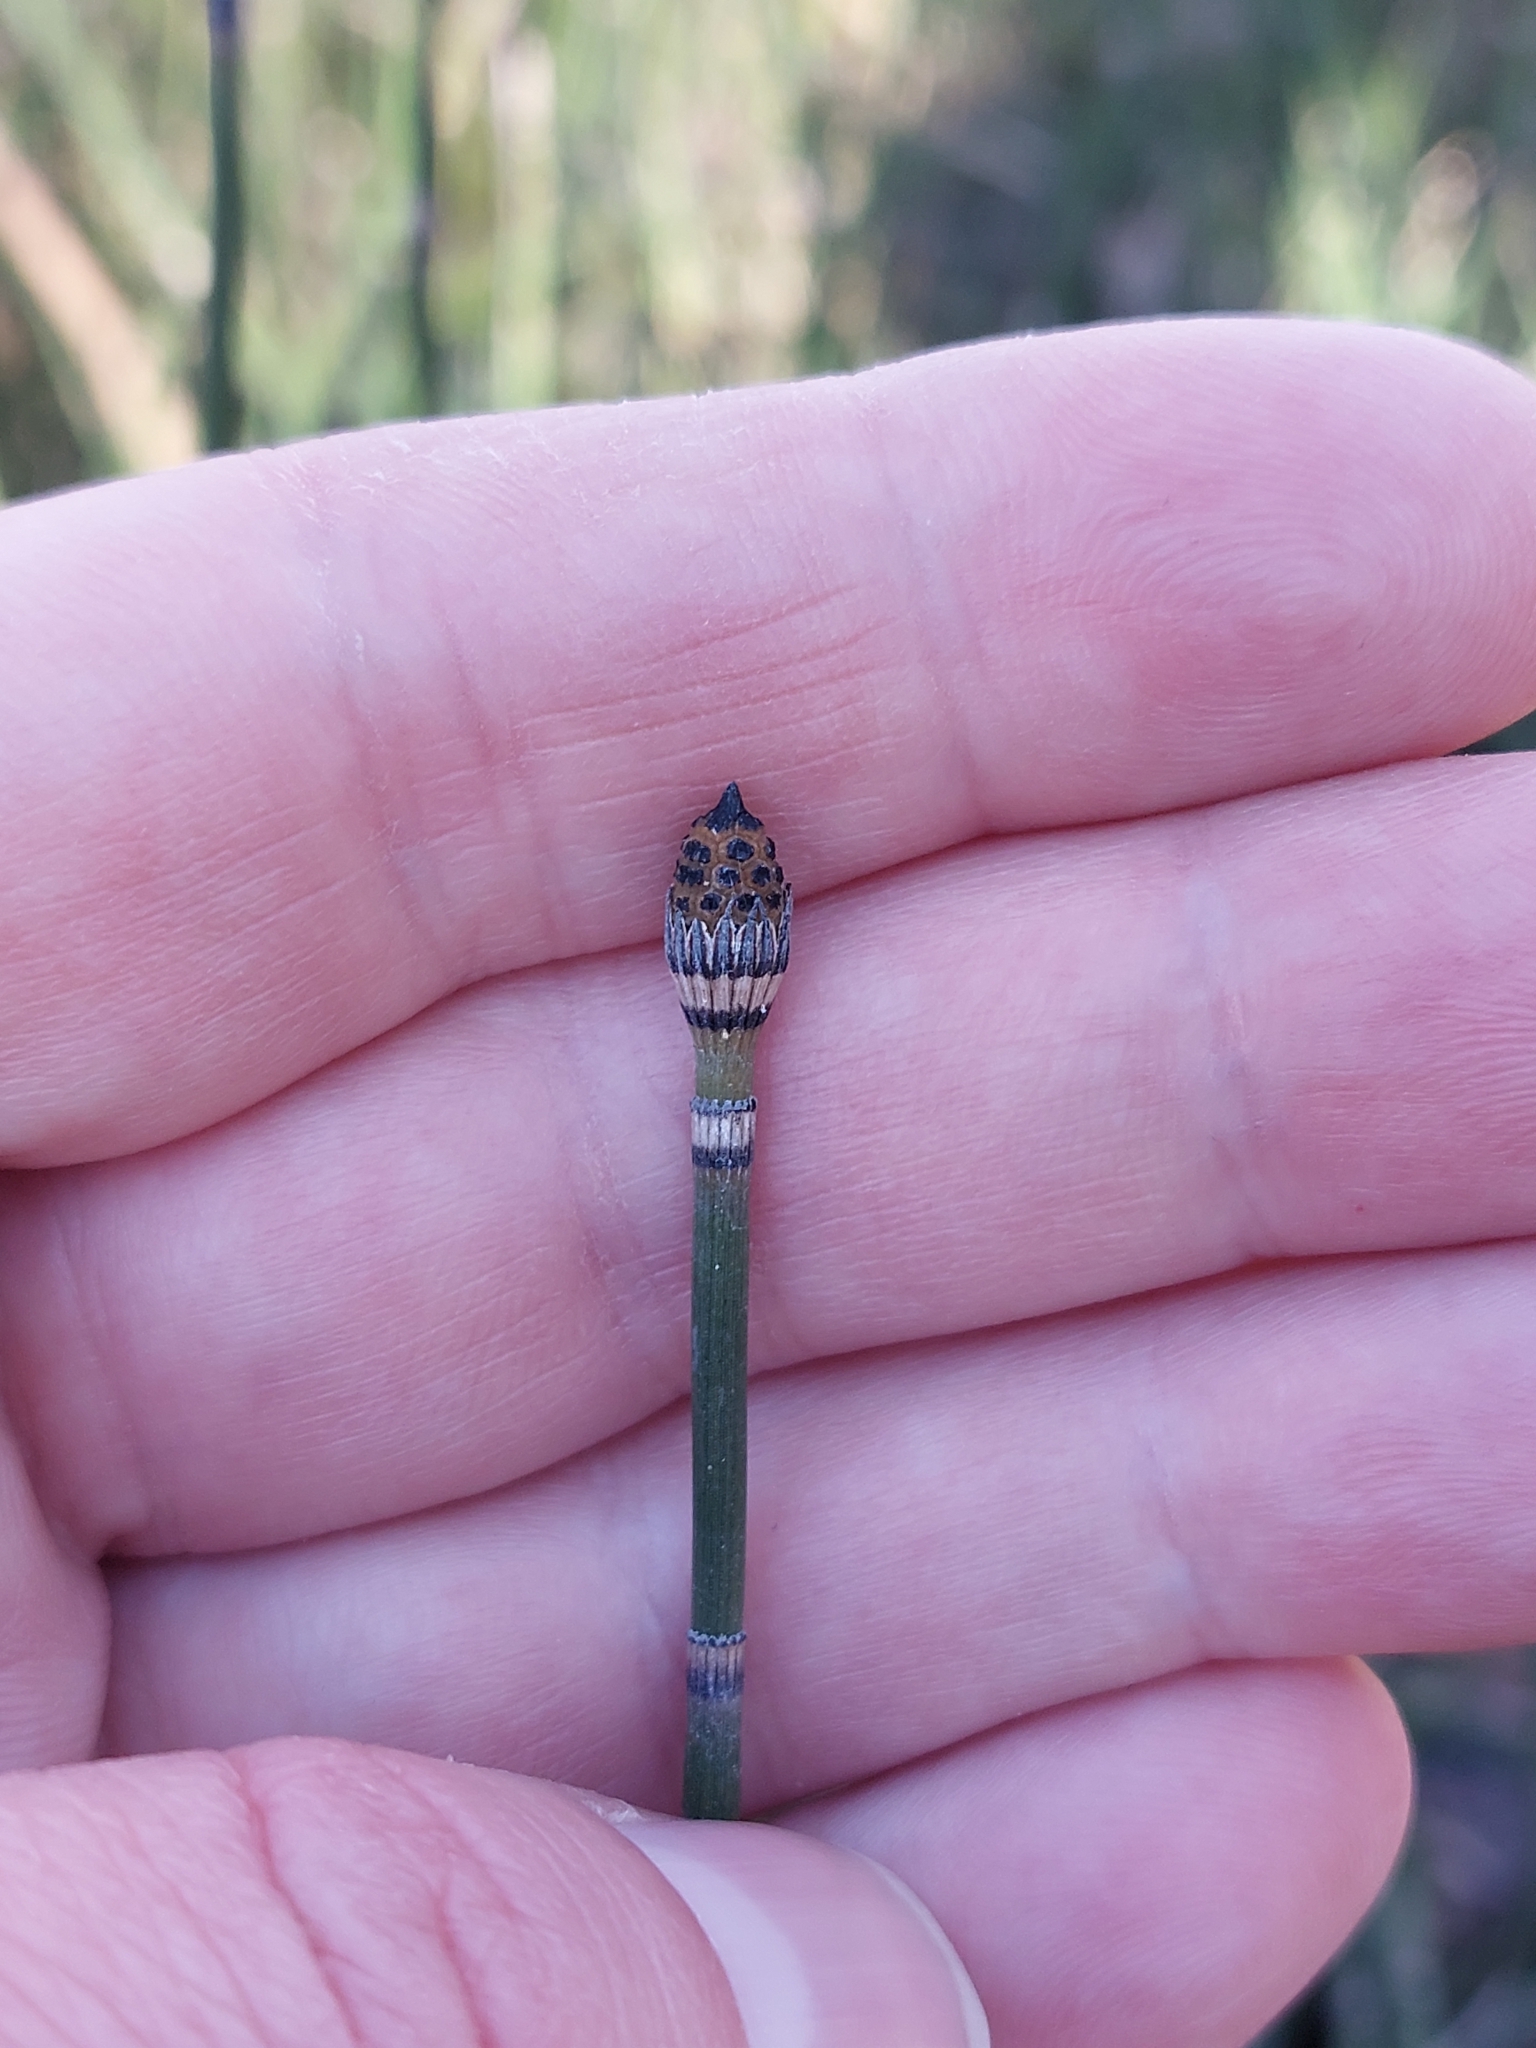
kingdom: Plantae
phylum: Tracheophyta
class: Polypodiopsida
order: Equisetales
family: Equisetaceae
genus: Equisetum
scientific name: Equisetum hyemale
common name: Rough horsetail
